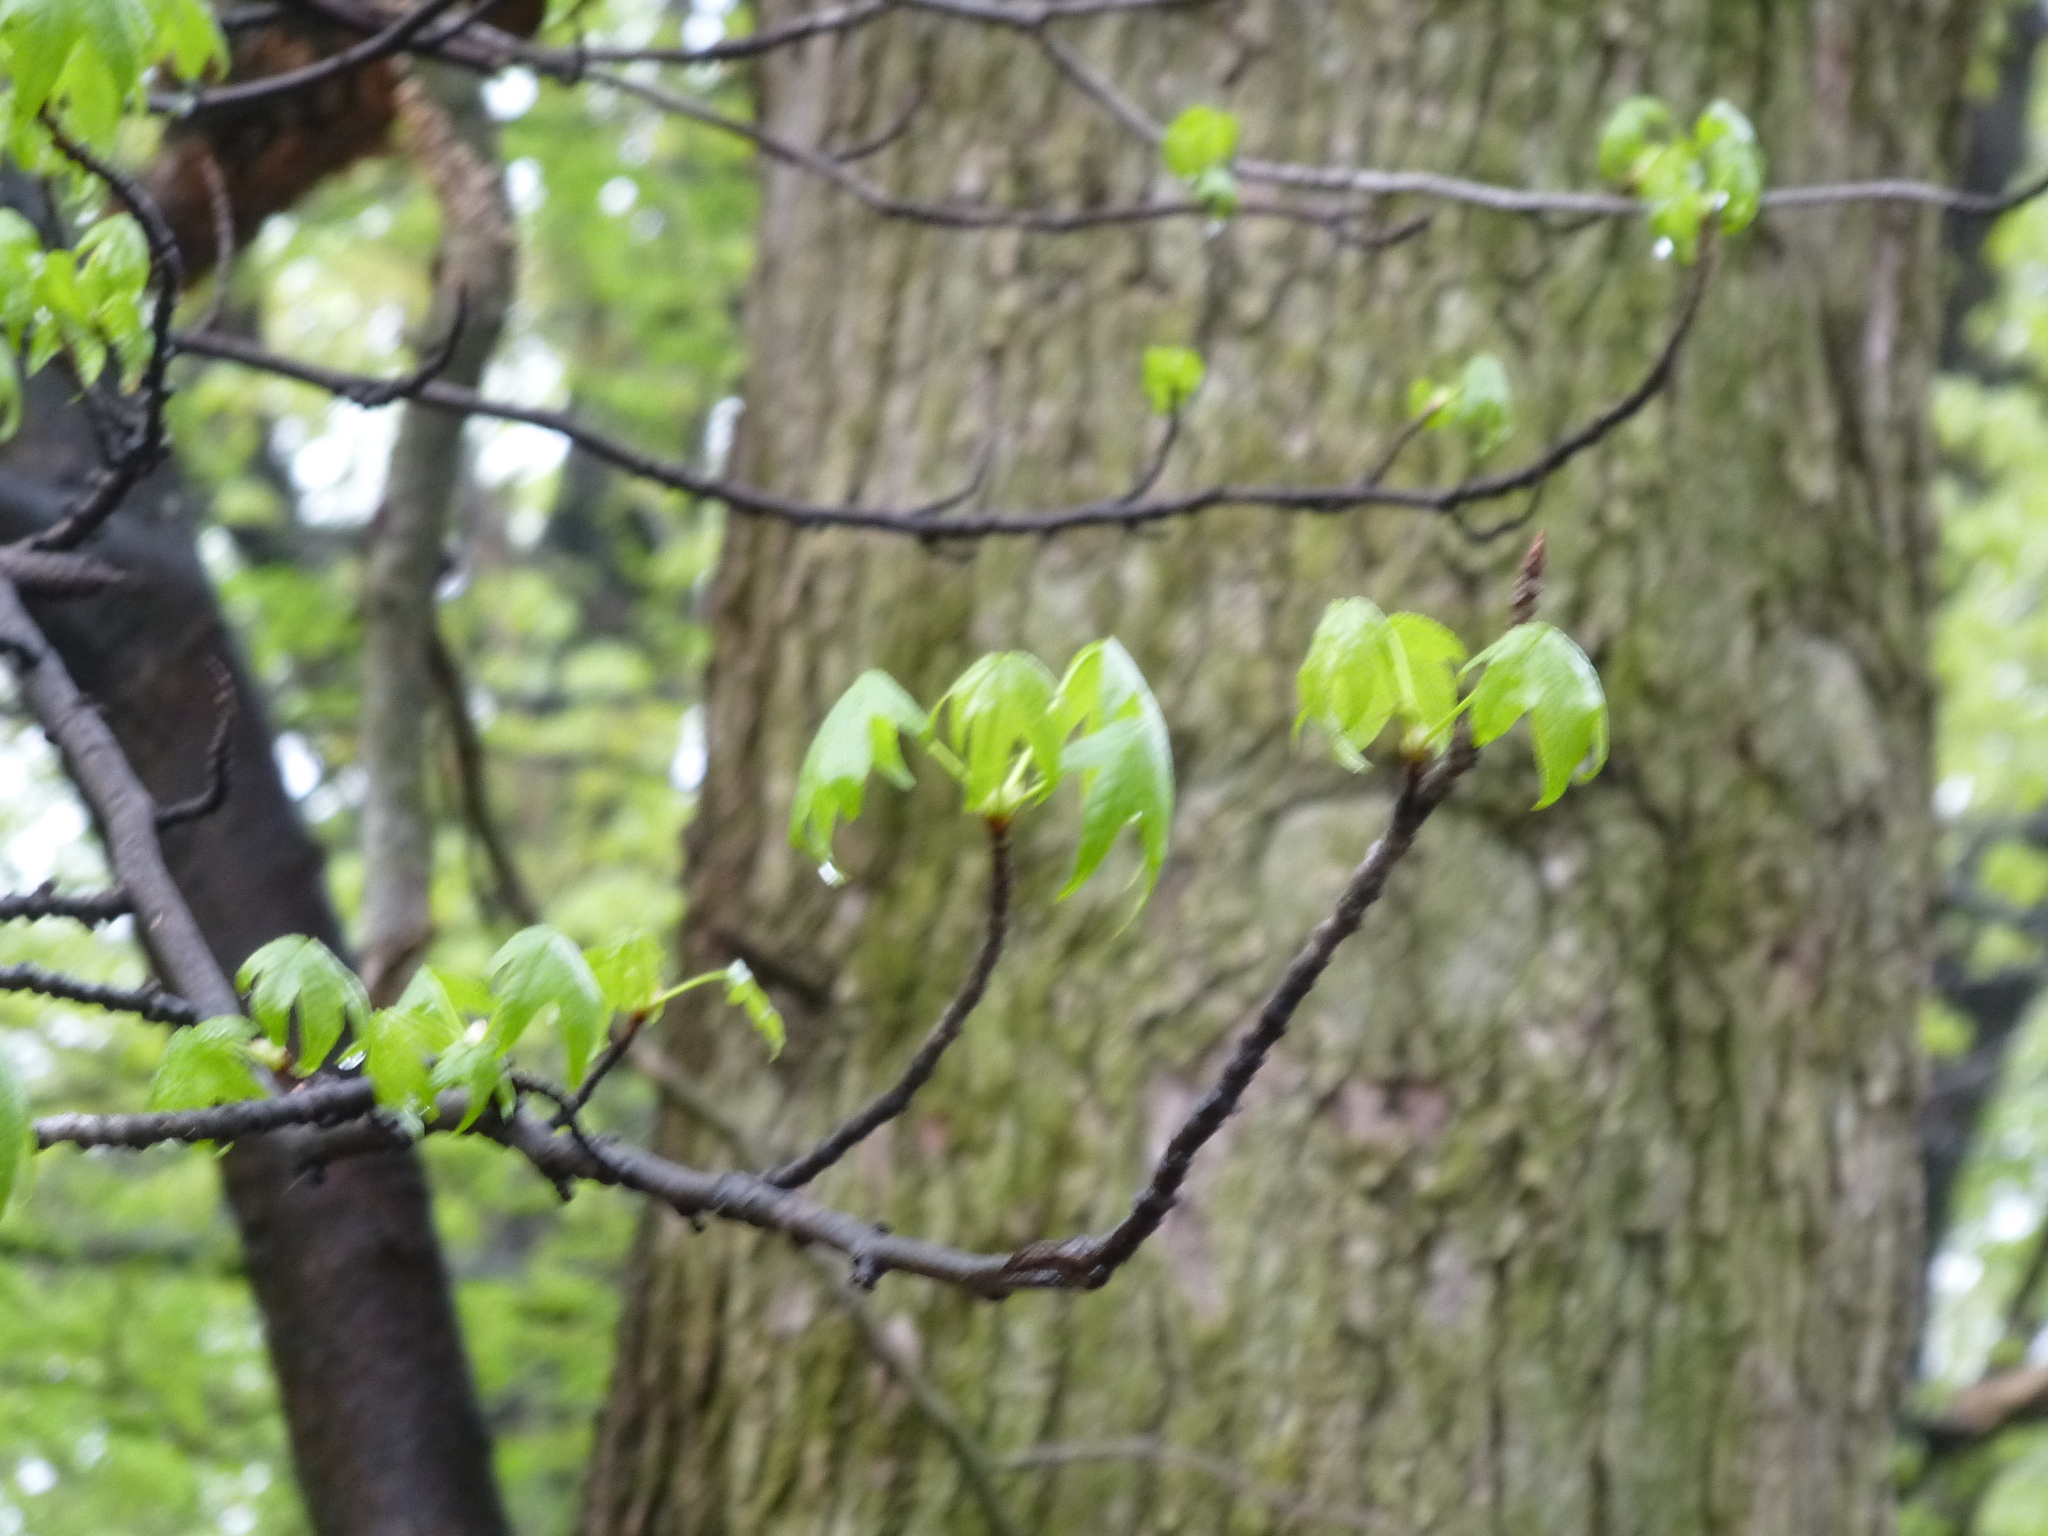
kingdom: Plantae
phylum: Tracheophyta
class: Magnoliopsida
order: Saxifragales
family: Altingiaceae
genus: Liquidambar
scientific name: Liquidambar styraciflua
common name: Sweet gum
